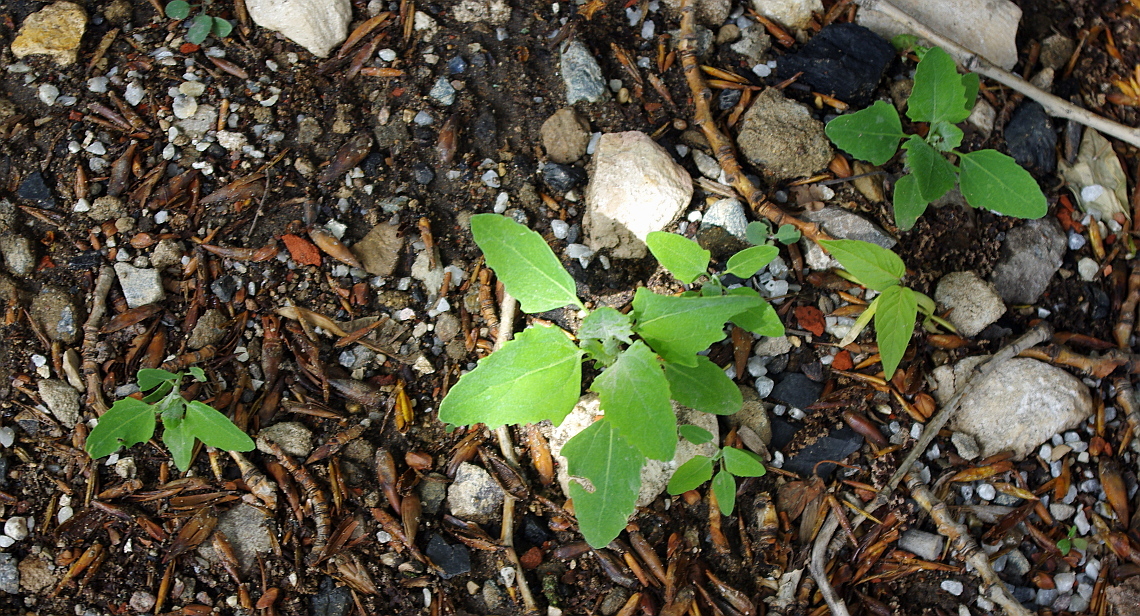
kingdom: Plantae
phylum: Tracheophyta
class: Magnoliopsida
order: Caryophyllales
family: Amaranthaceae
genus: Chenopodium
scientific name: Chenopodium album
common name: Fat-hen
